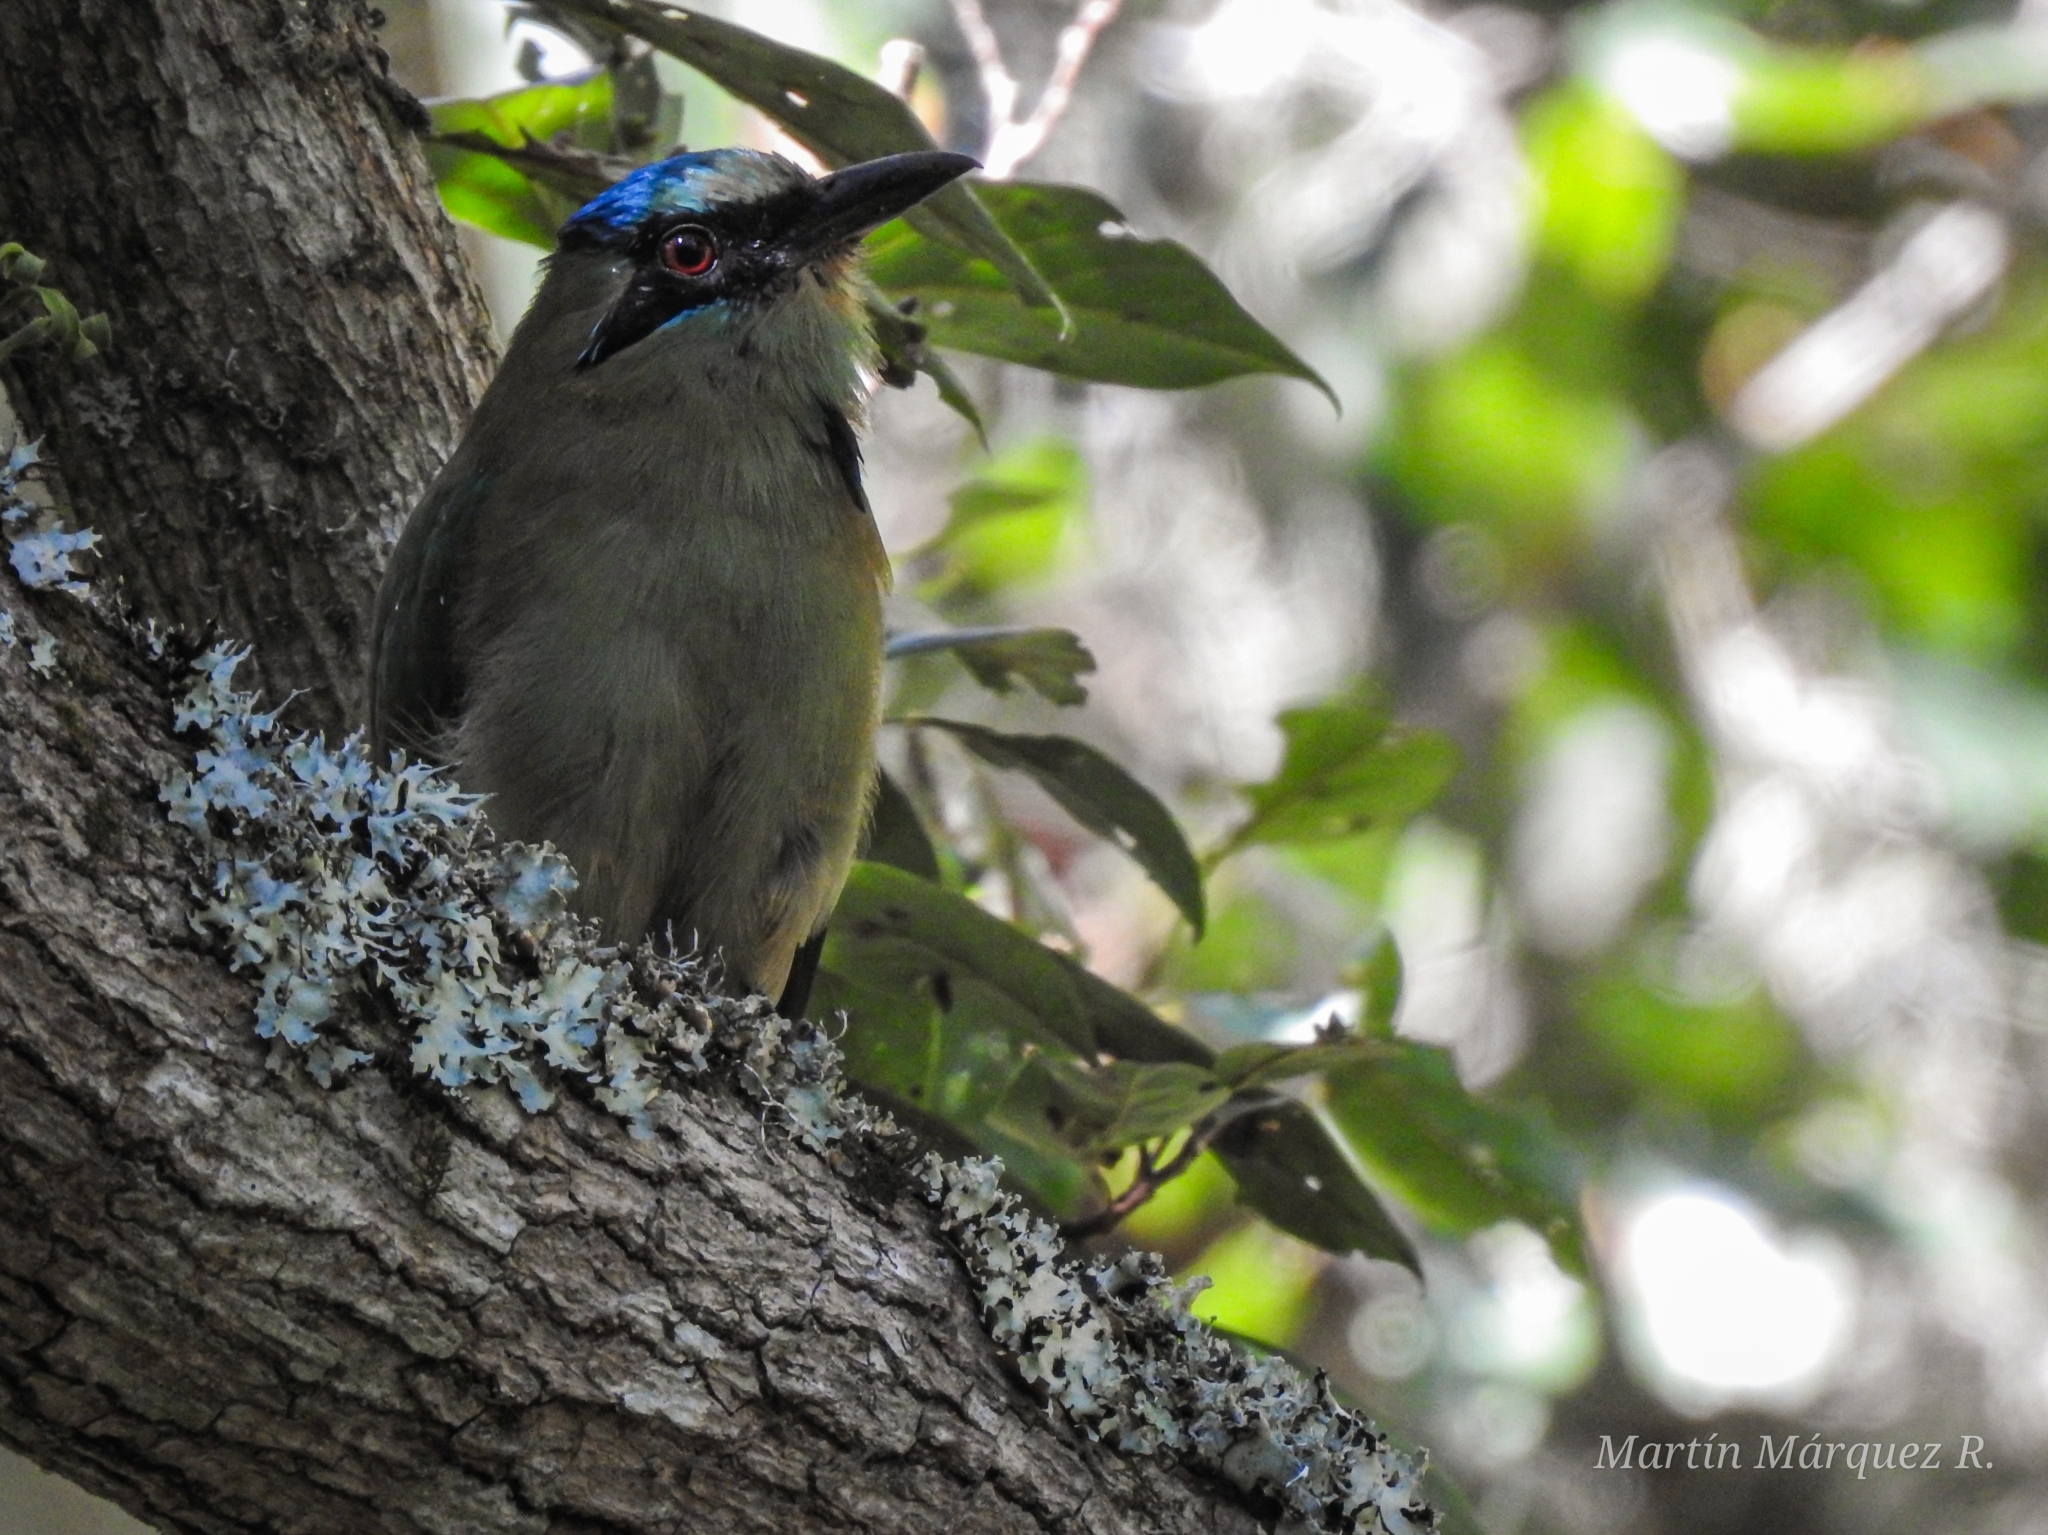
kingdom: Animalia
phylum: Chordata
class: Aves
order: Coraciiformes
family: Momotidae
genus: Momotus
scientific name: Momotus coeruliceps
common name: Blue-capped motmot
